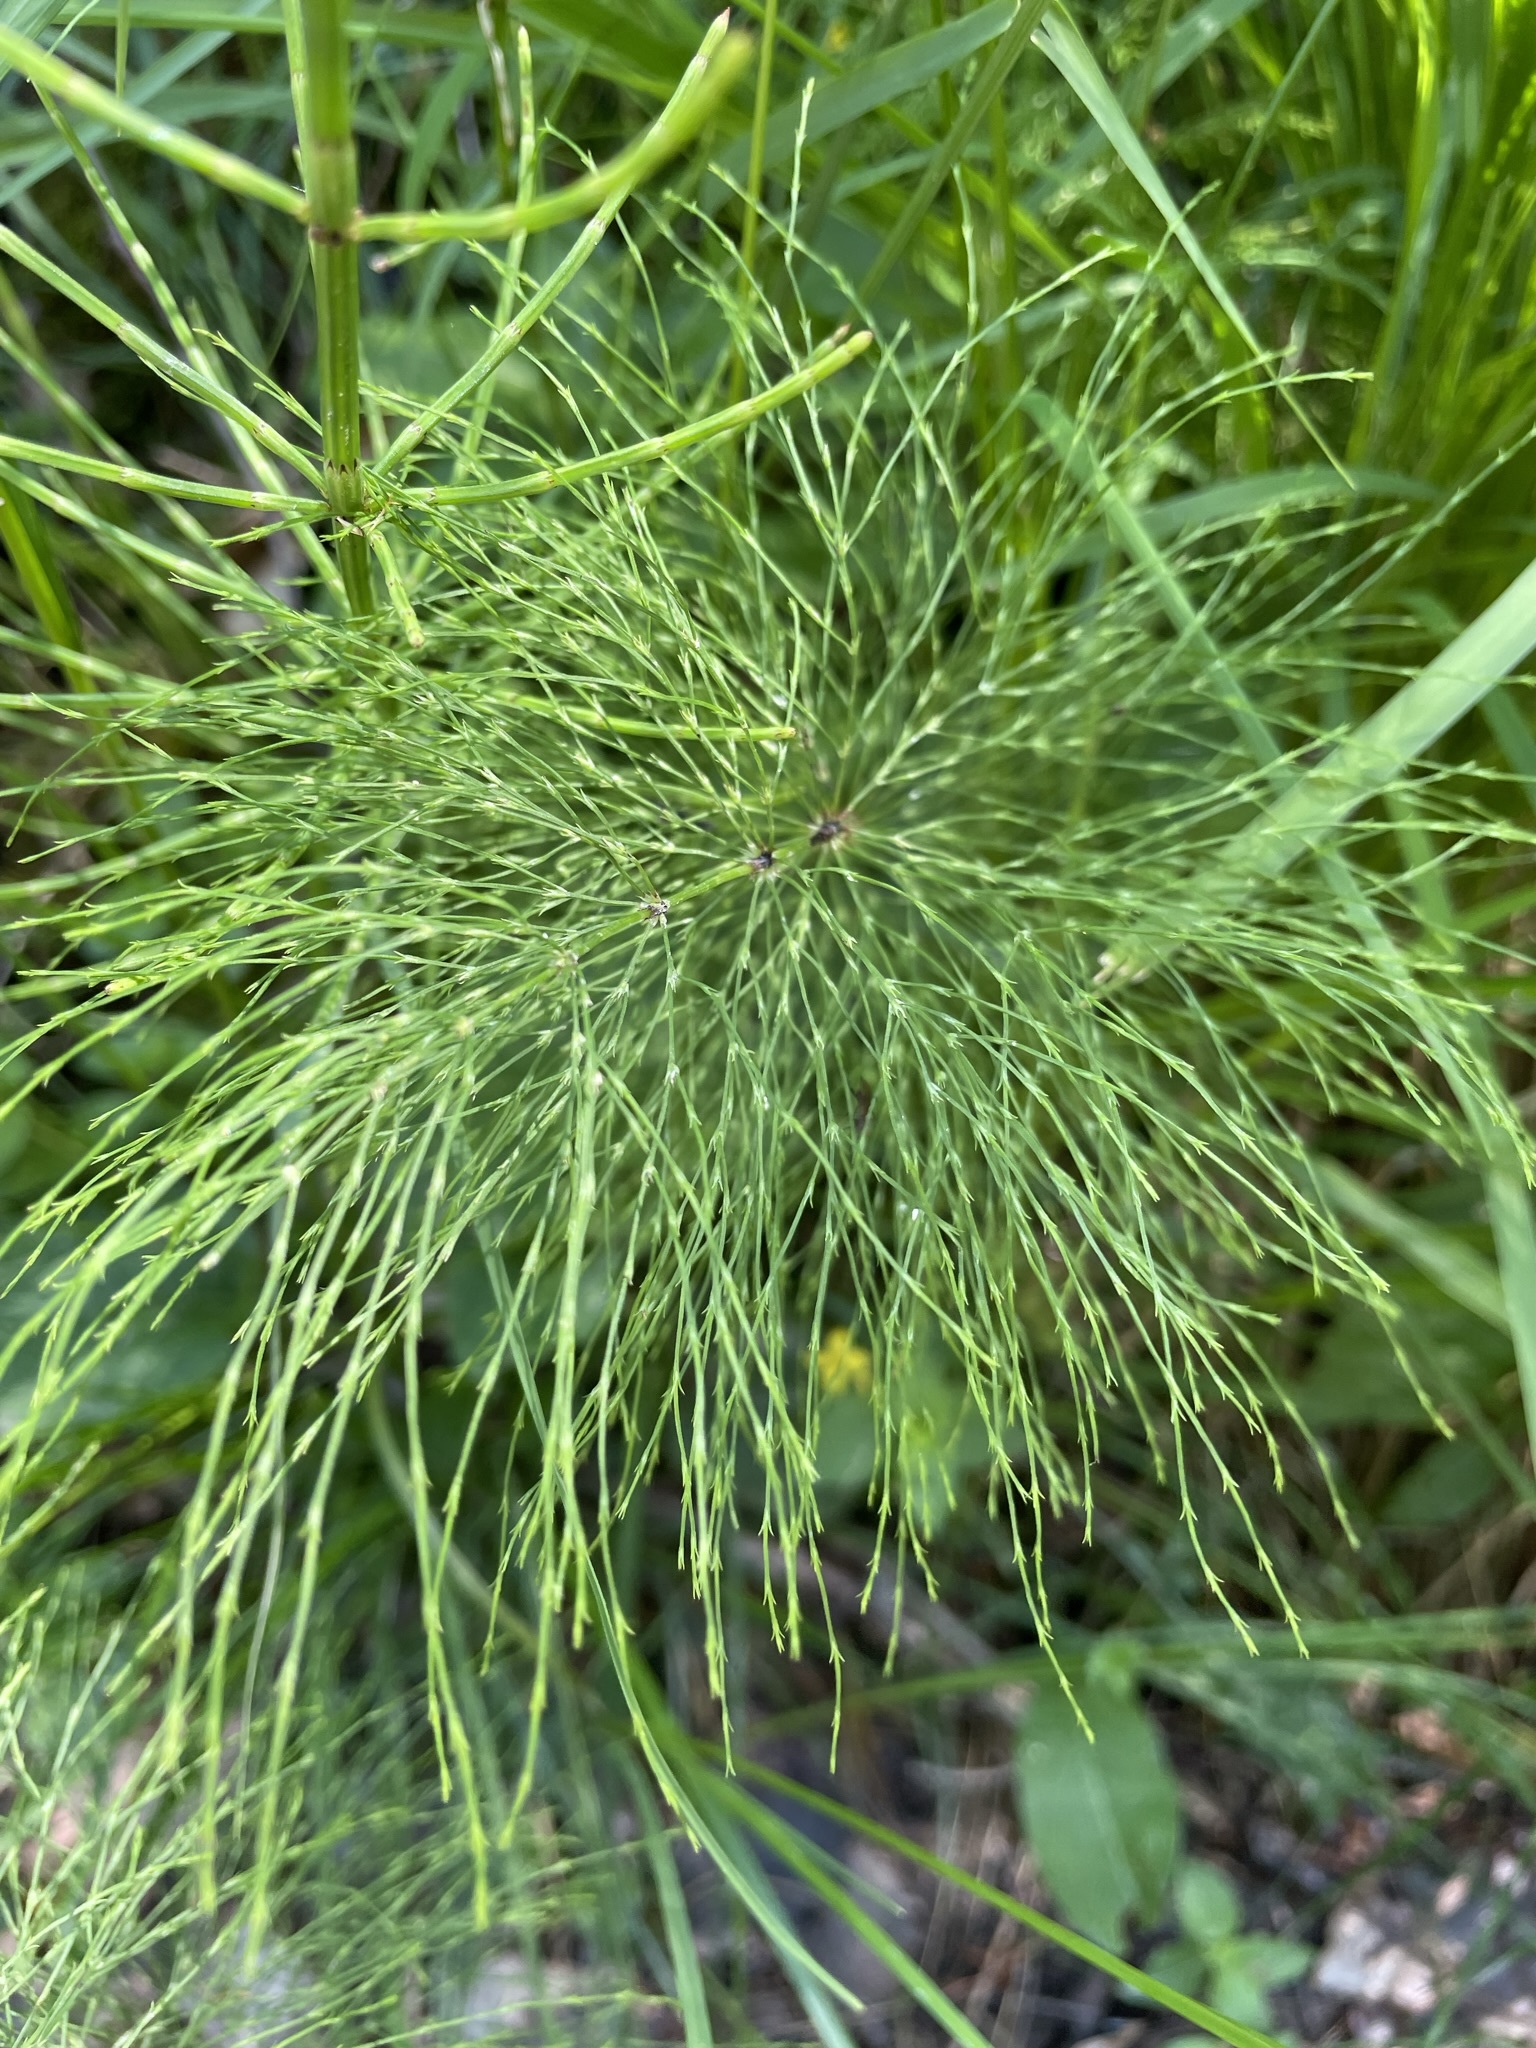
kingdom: Plantae
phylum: Tracheophyta
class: Polypodiopsida
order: Equisetales
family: Equisetaceae
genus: Equisetum
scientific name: Equisetum sylvaticum
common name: Wood horsetail
